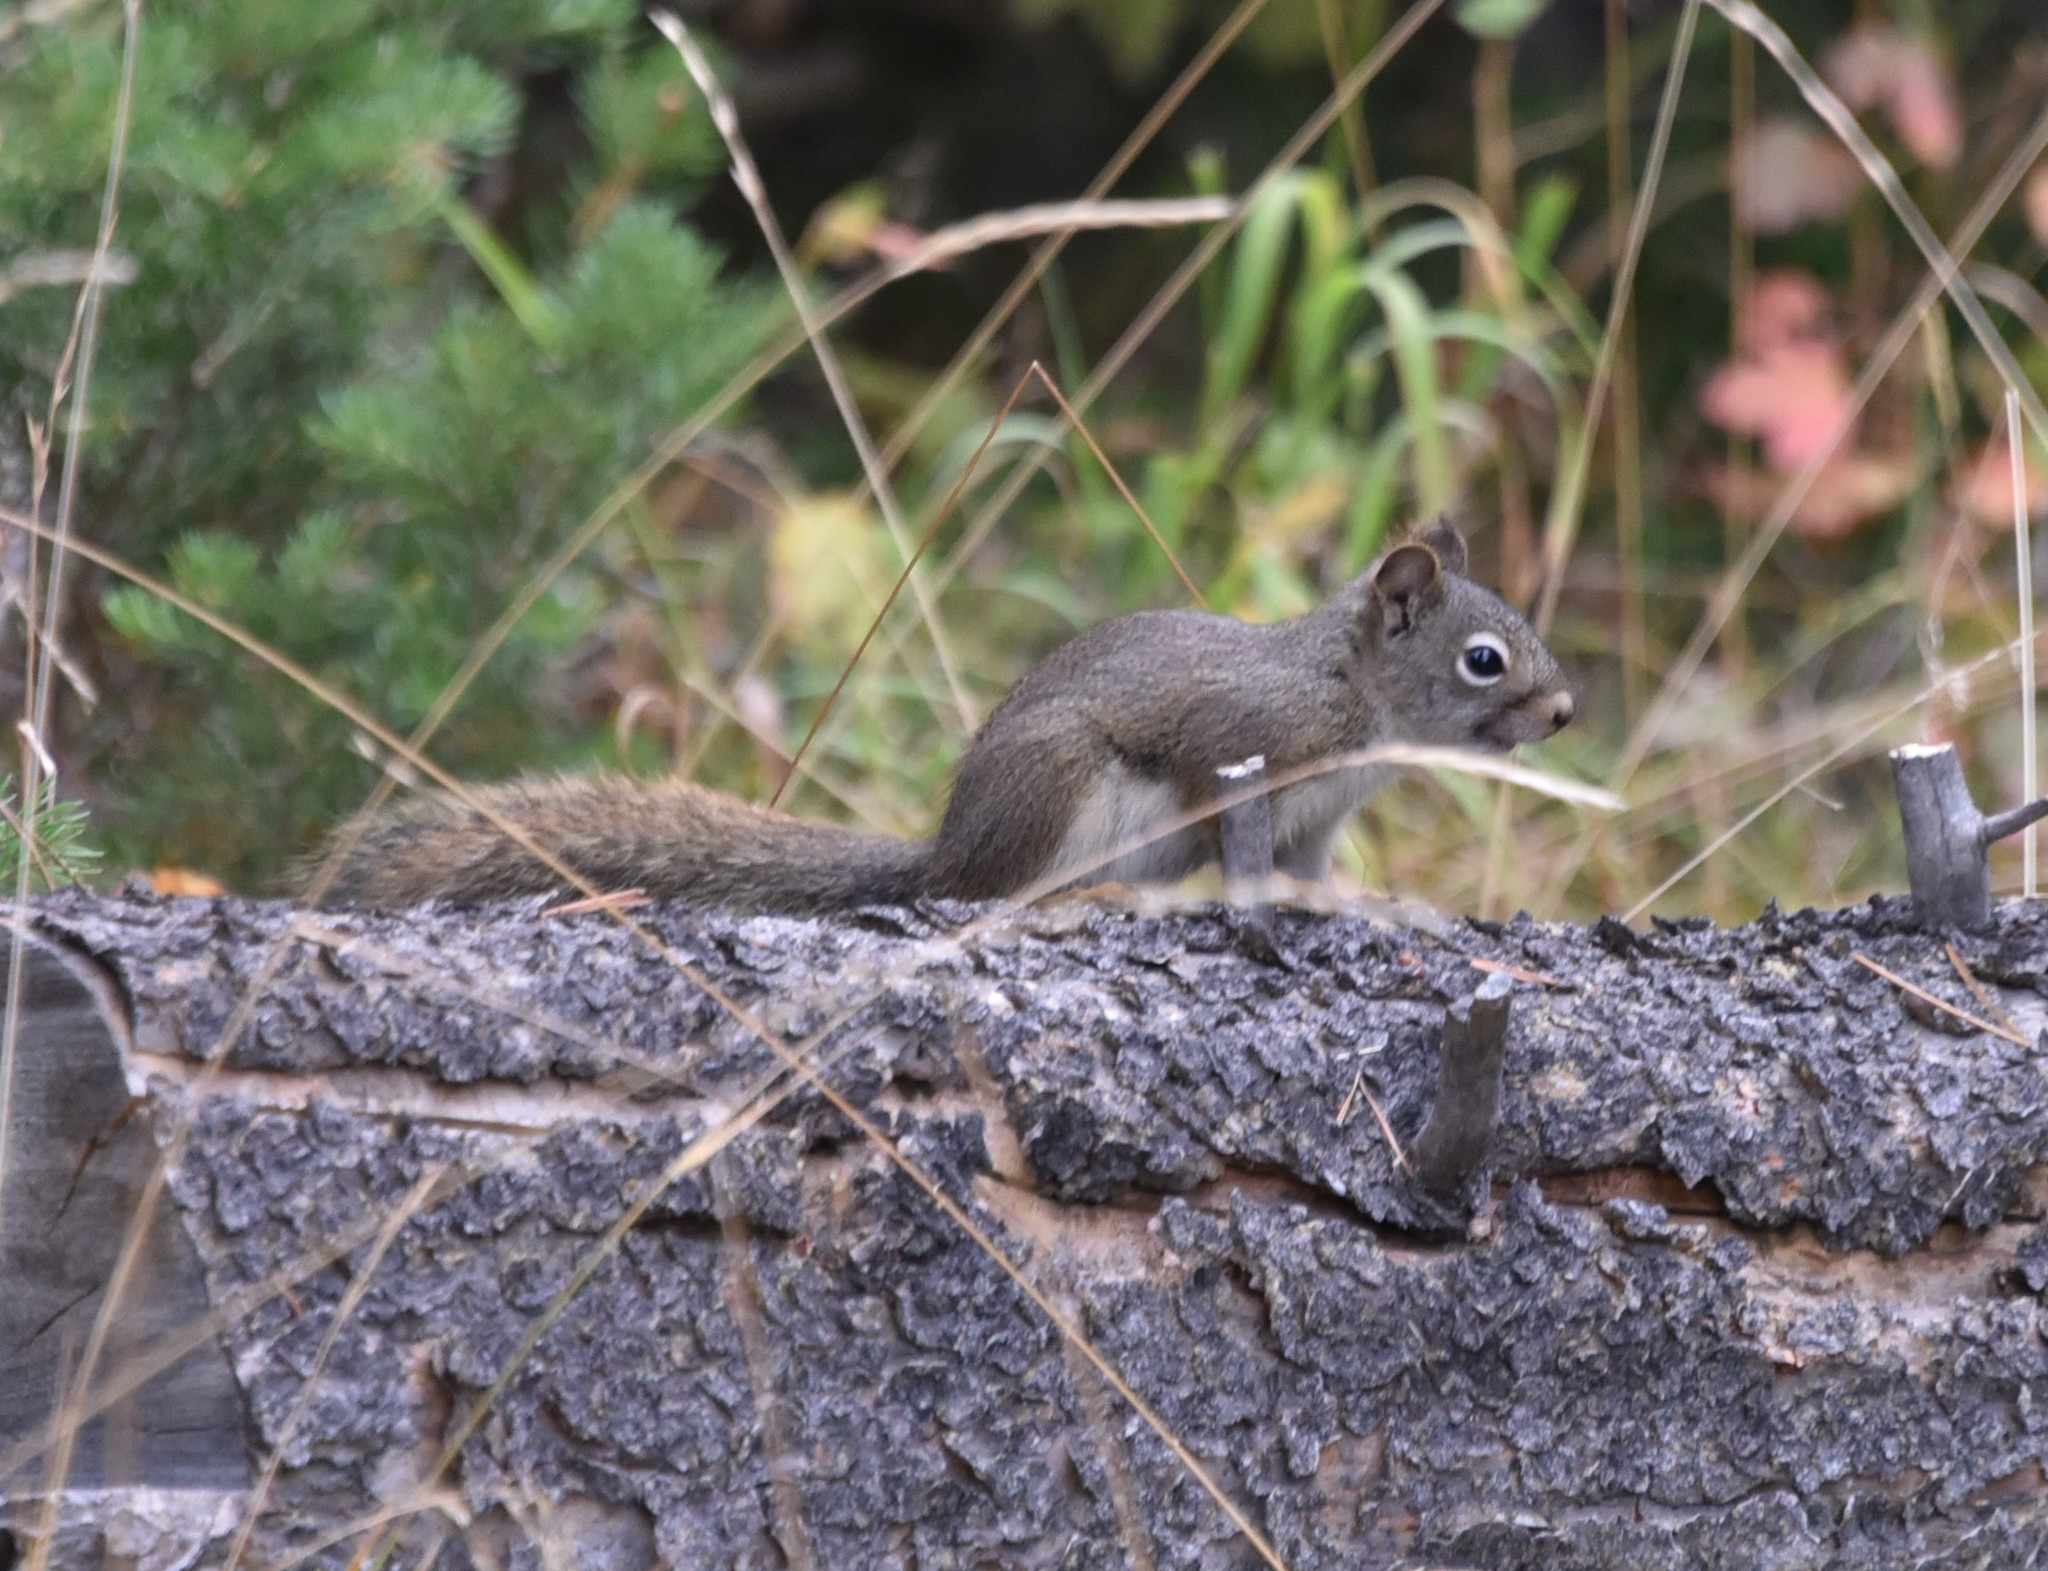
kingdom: Animalia
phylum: Chordata
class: Mammalia
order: Rodentia
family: Sciuridae
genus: Tamiasciurus
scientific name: Tamiasciurus hudsonicus
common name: Red squirrel
